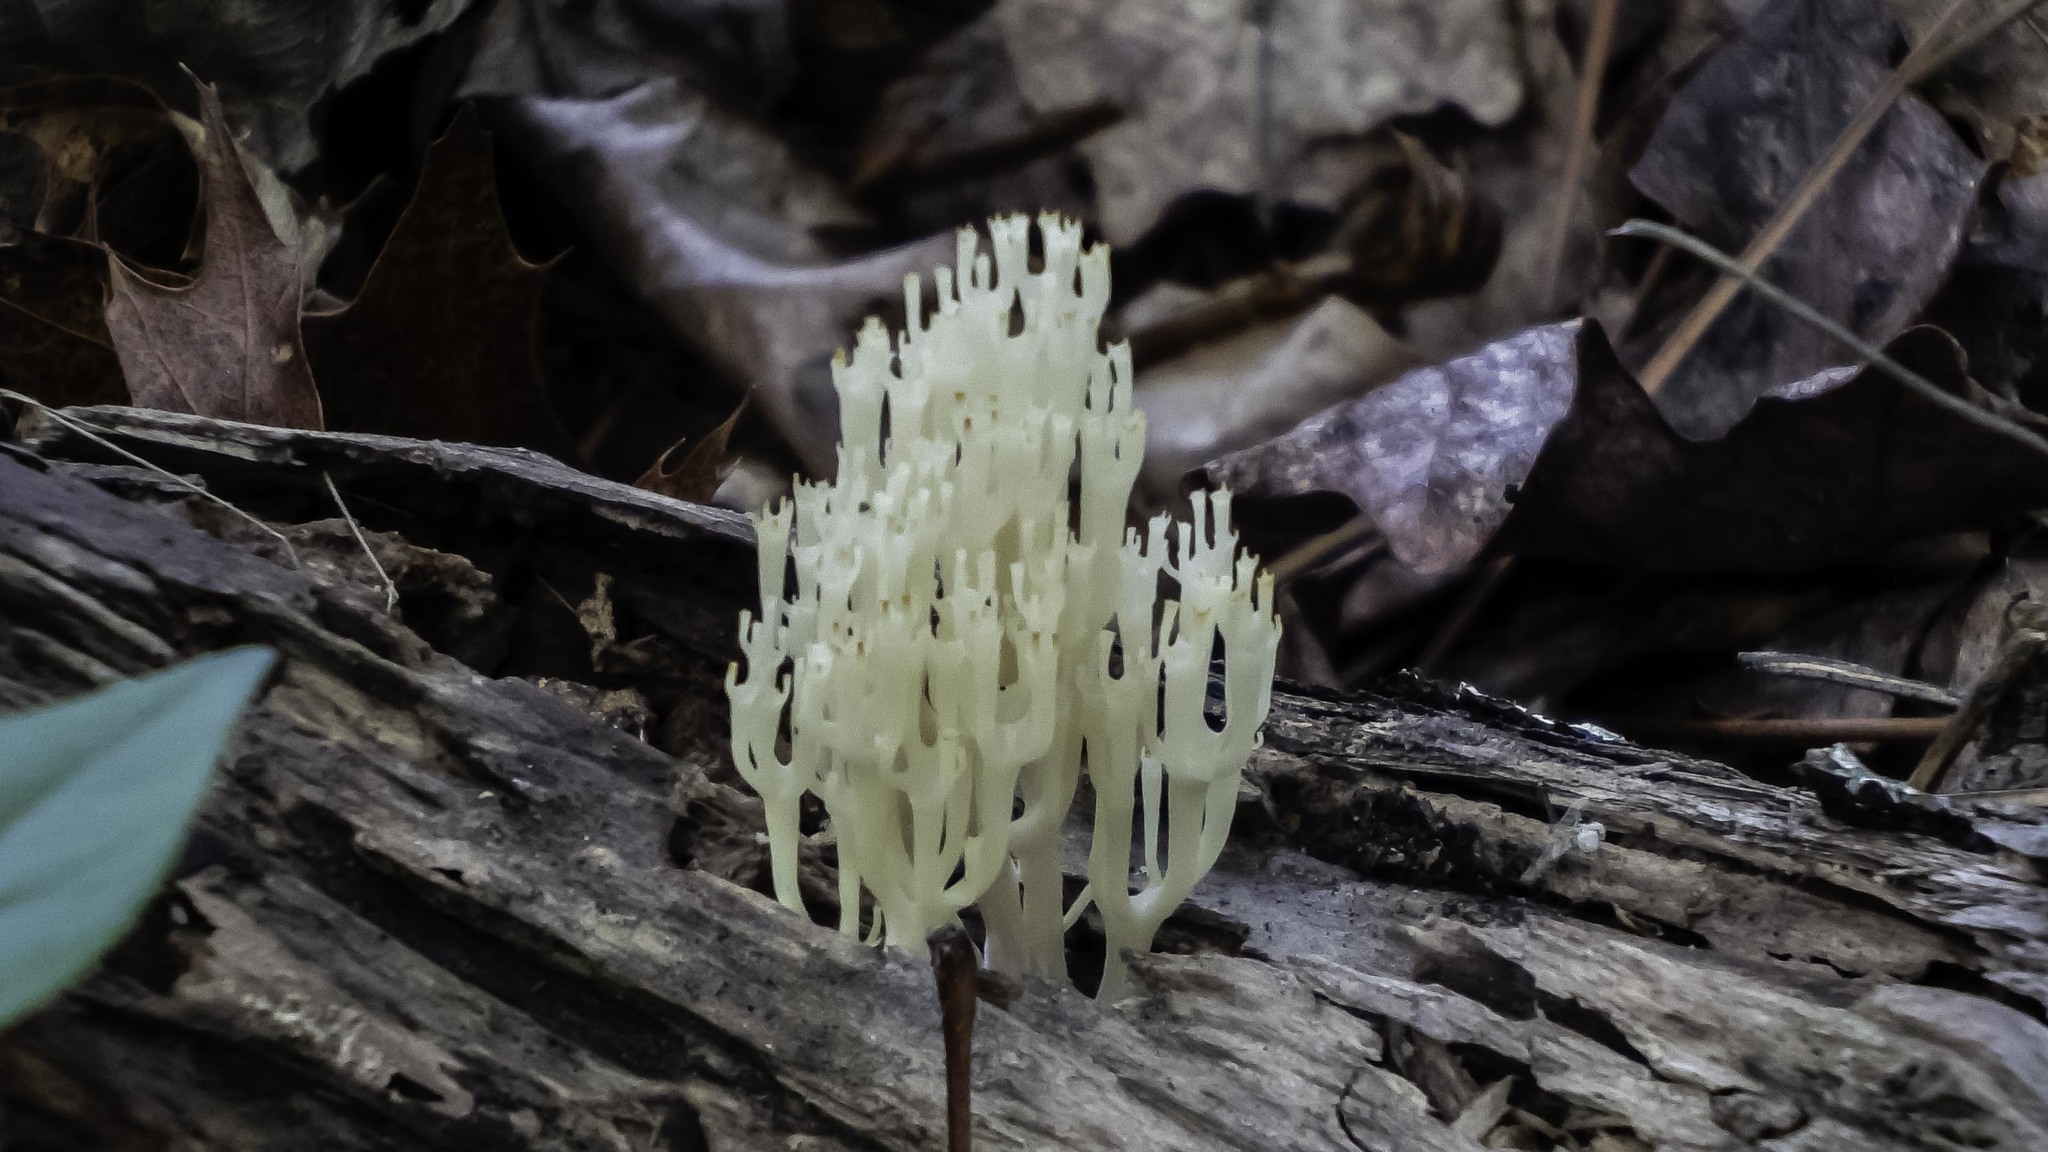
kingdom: Fungi
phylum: Basidiomycota
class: Agaricomycetes
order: Russulales
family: Auriscalpiaceae
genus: Artomyces
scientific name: Artomyces pyxidatus
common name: Crown-tipped coral fungus
